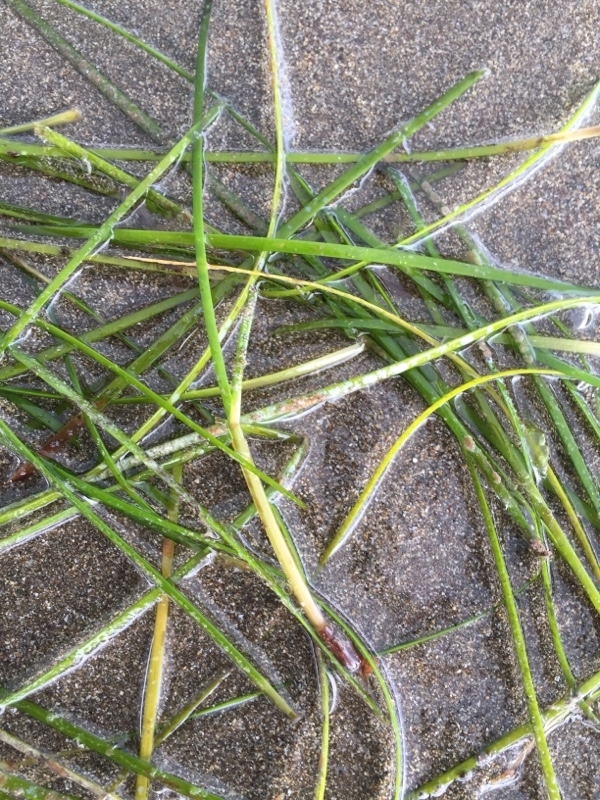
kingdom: Plantae
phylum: Tracheophyta
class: Liliopsida
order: Alismatales
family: Cymodoceaceae
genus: Cymodocea
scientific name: Cymodocea nodosa
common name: Slender seagrass
